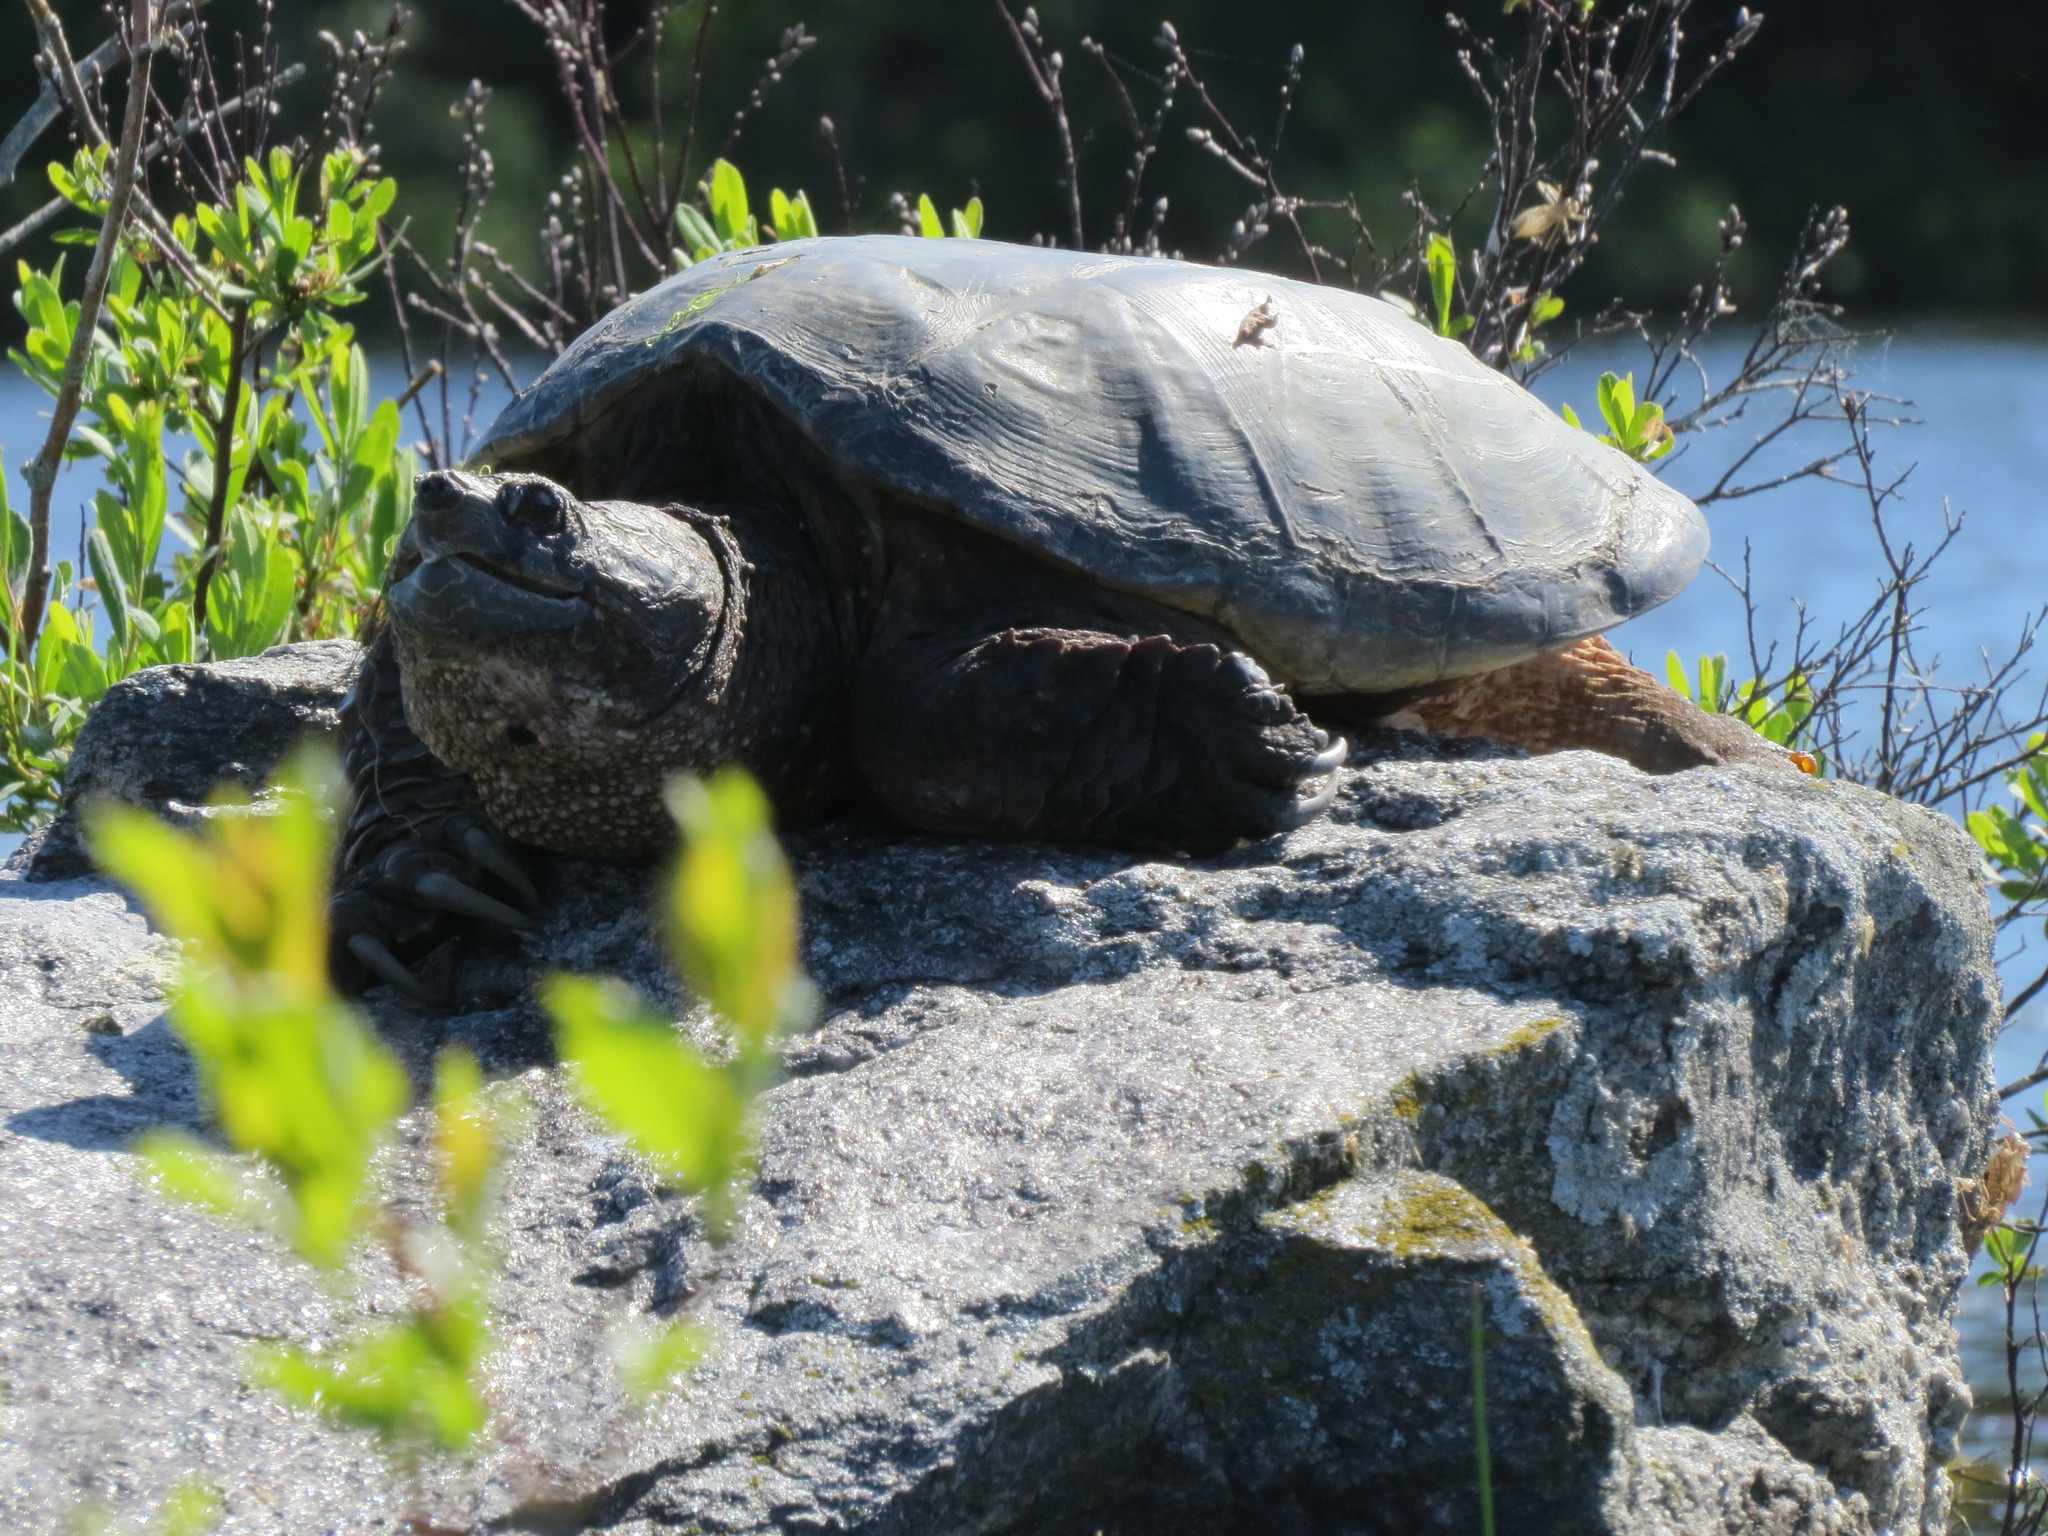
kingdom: Animalia
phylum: Chordata
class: Testudines
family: Chelydridae
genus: Chelydra
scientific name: Chelydra serpentina
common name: Common snapping turtle
